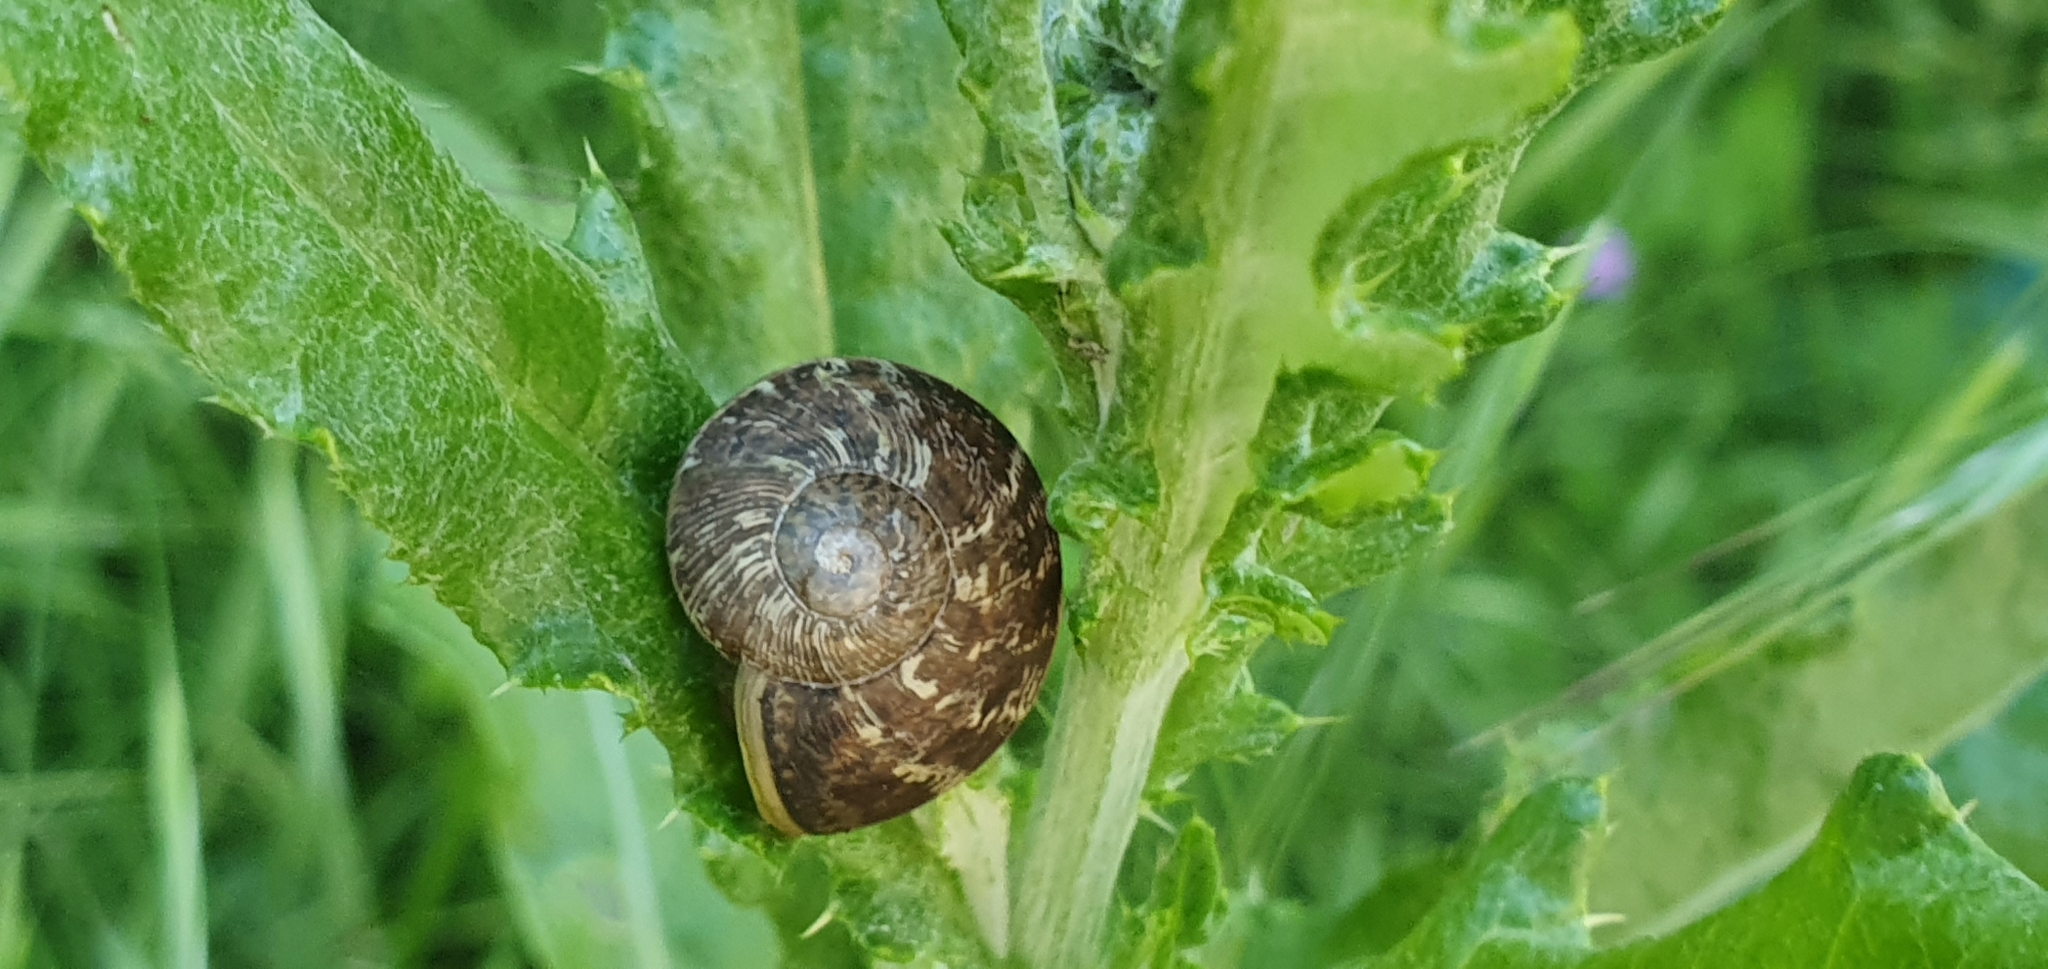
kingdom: Animalia
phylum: Mollusca
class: Gastropoda
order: Stylommatophora
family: Helicidae
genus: Cornu
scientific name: Cornu aspersum
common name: Brown garden snail
